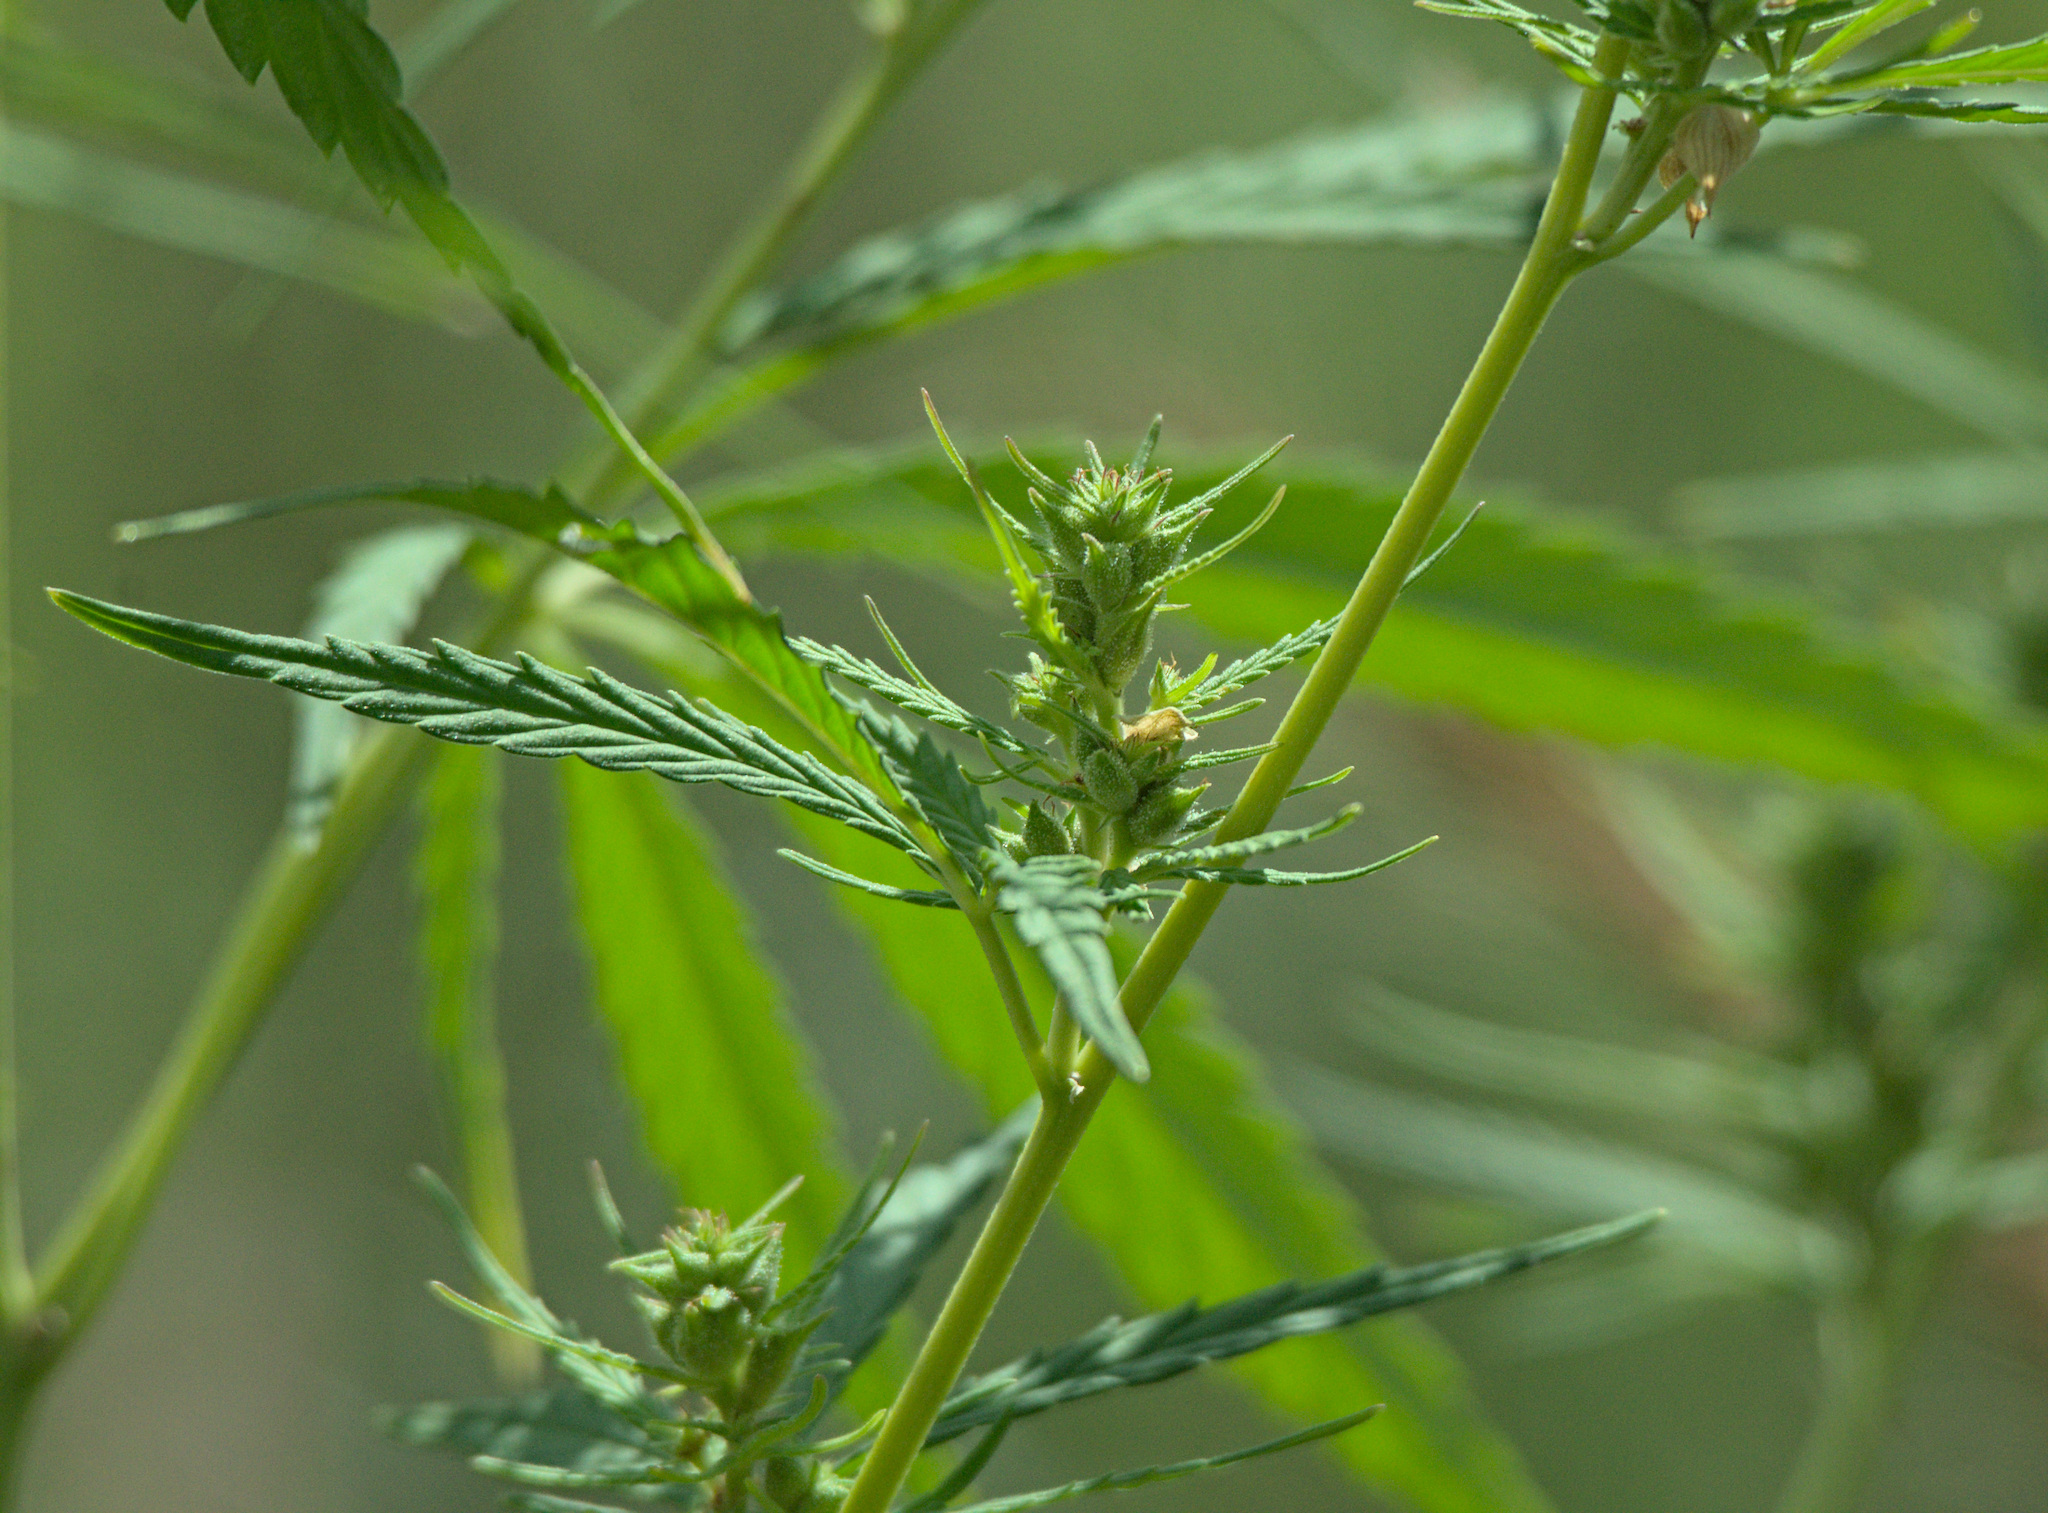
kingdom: Plantae
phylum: Tracheophyta
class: Magnoliopsida
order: Rosales
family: Cannabaceae
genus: Cannabis
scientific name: Cannabis sativa
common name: Hemp
